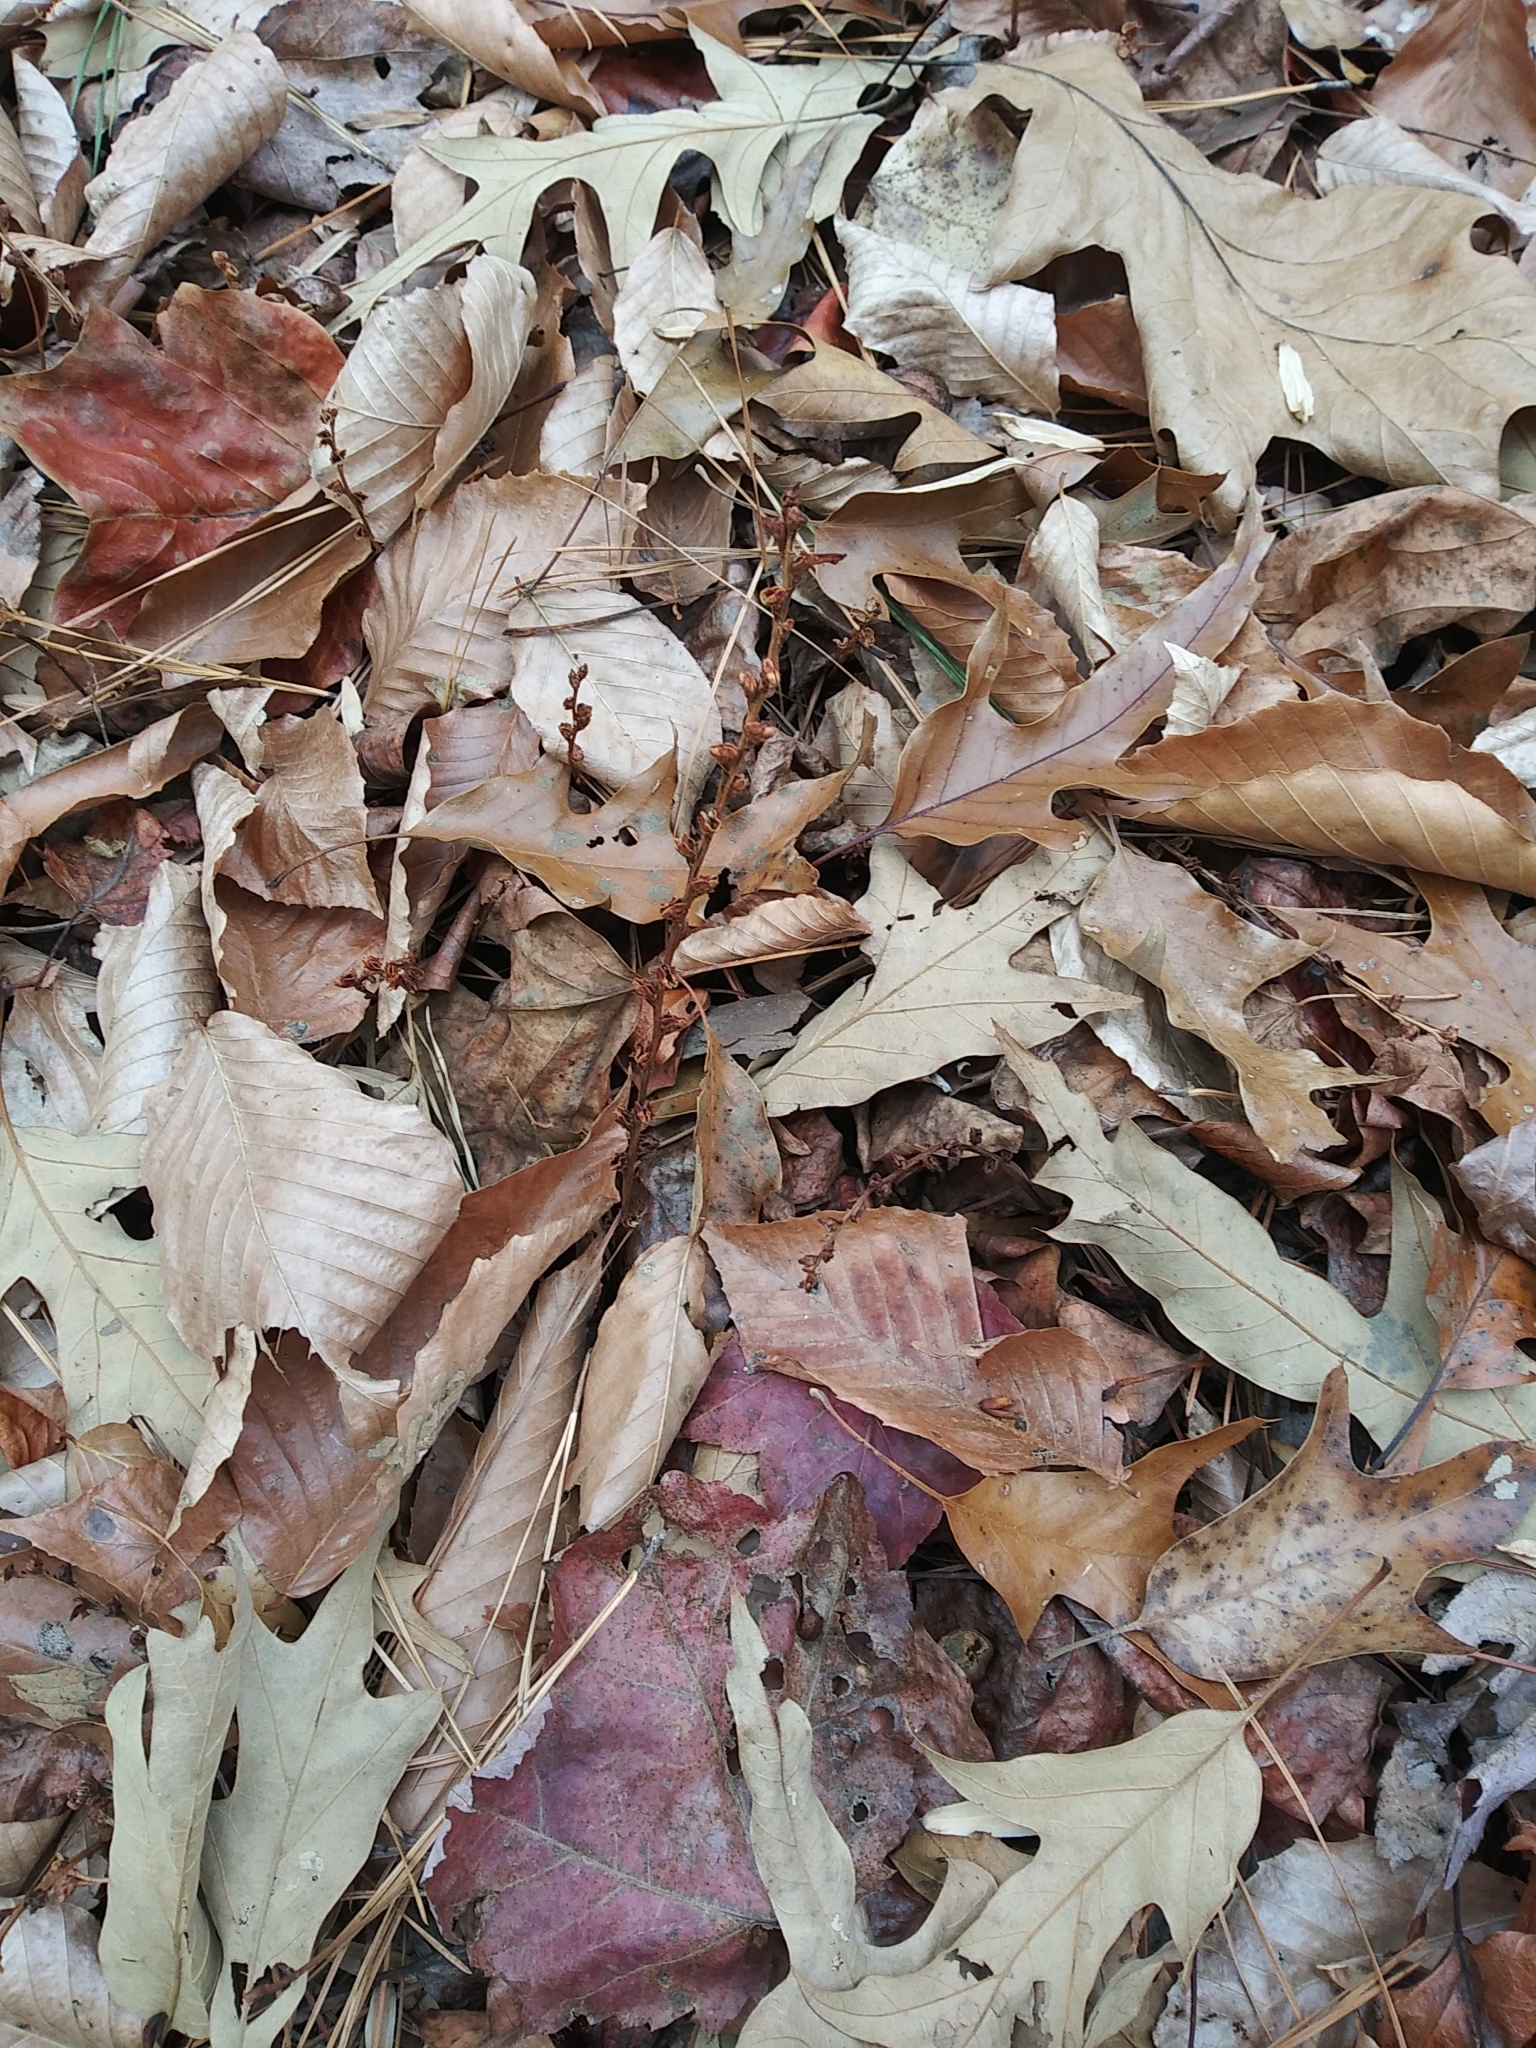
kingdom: Plantae
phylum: Tracheophyta
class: Magnoliopsida
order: Lamiales
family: Orobanchaceae
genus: Epifagus
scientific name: Epifagus virginiana
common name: Beechdrops
